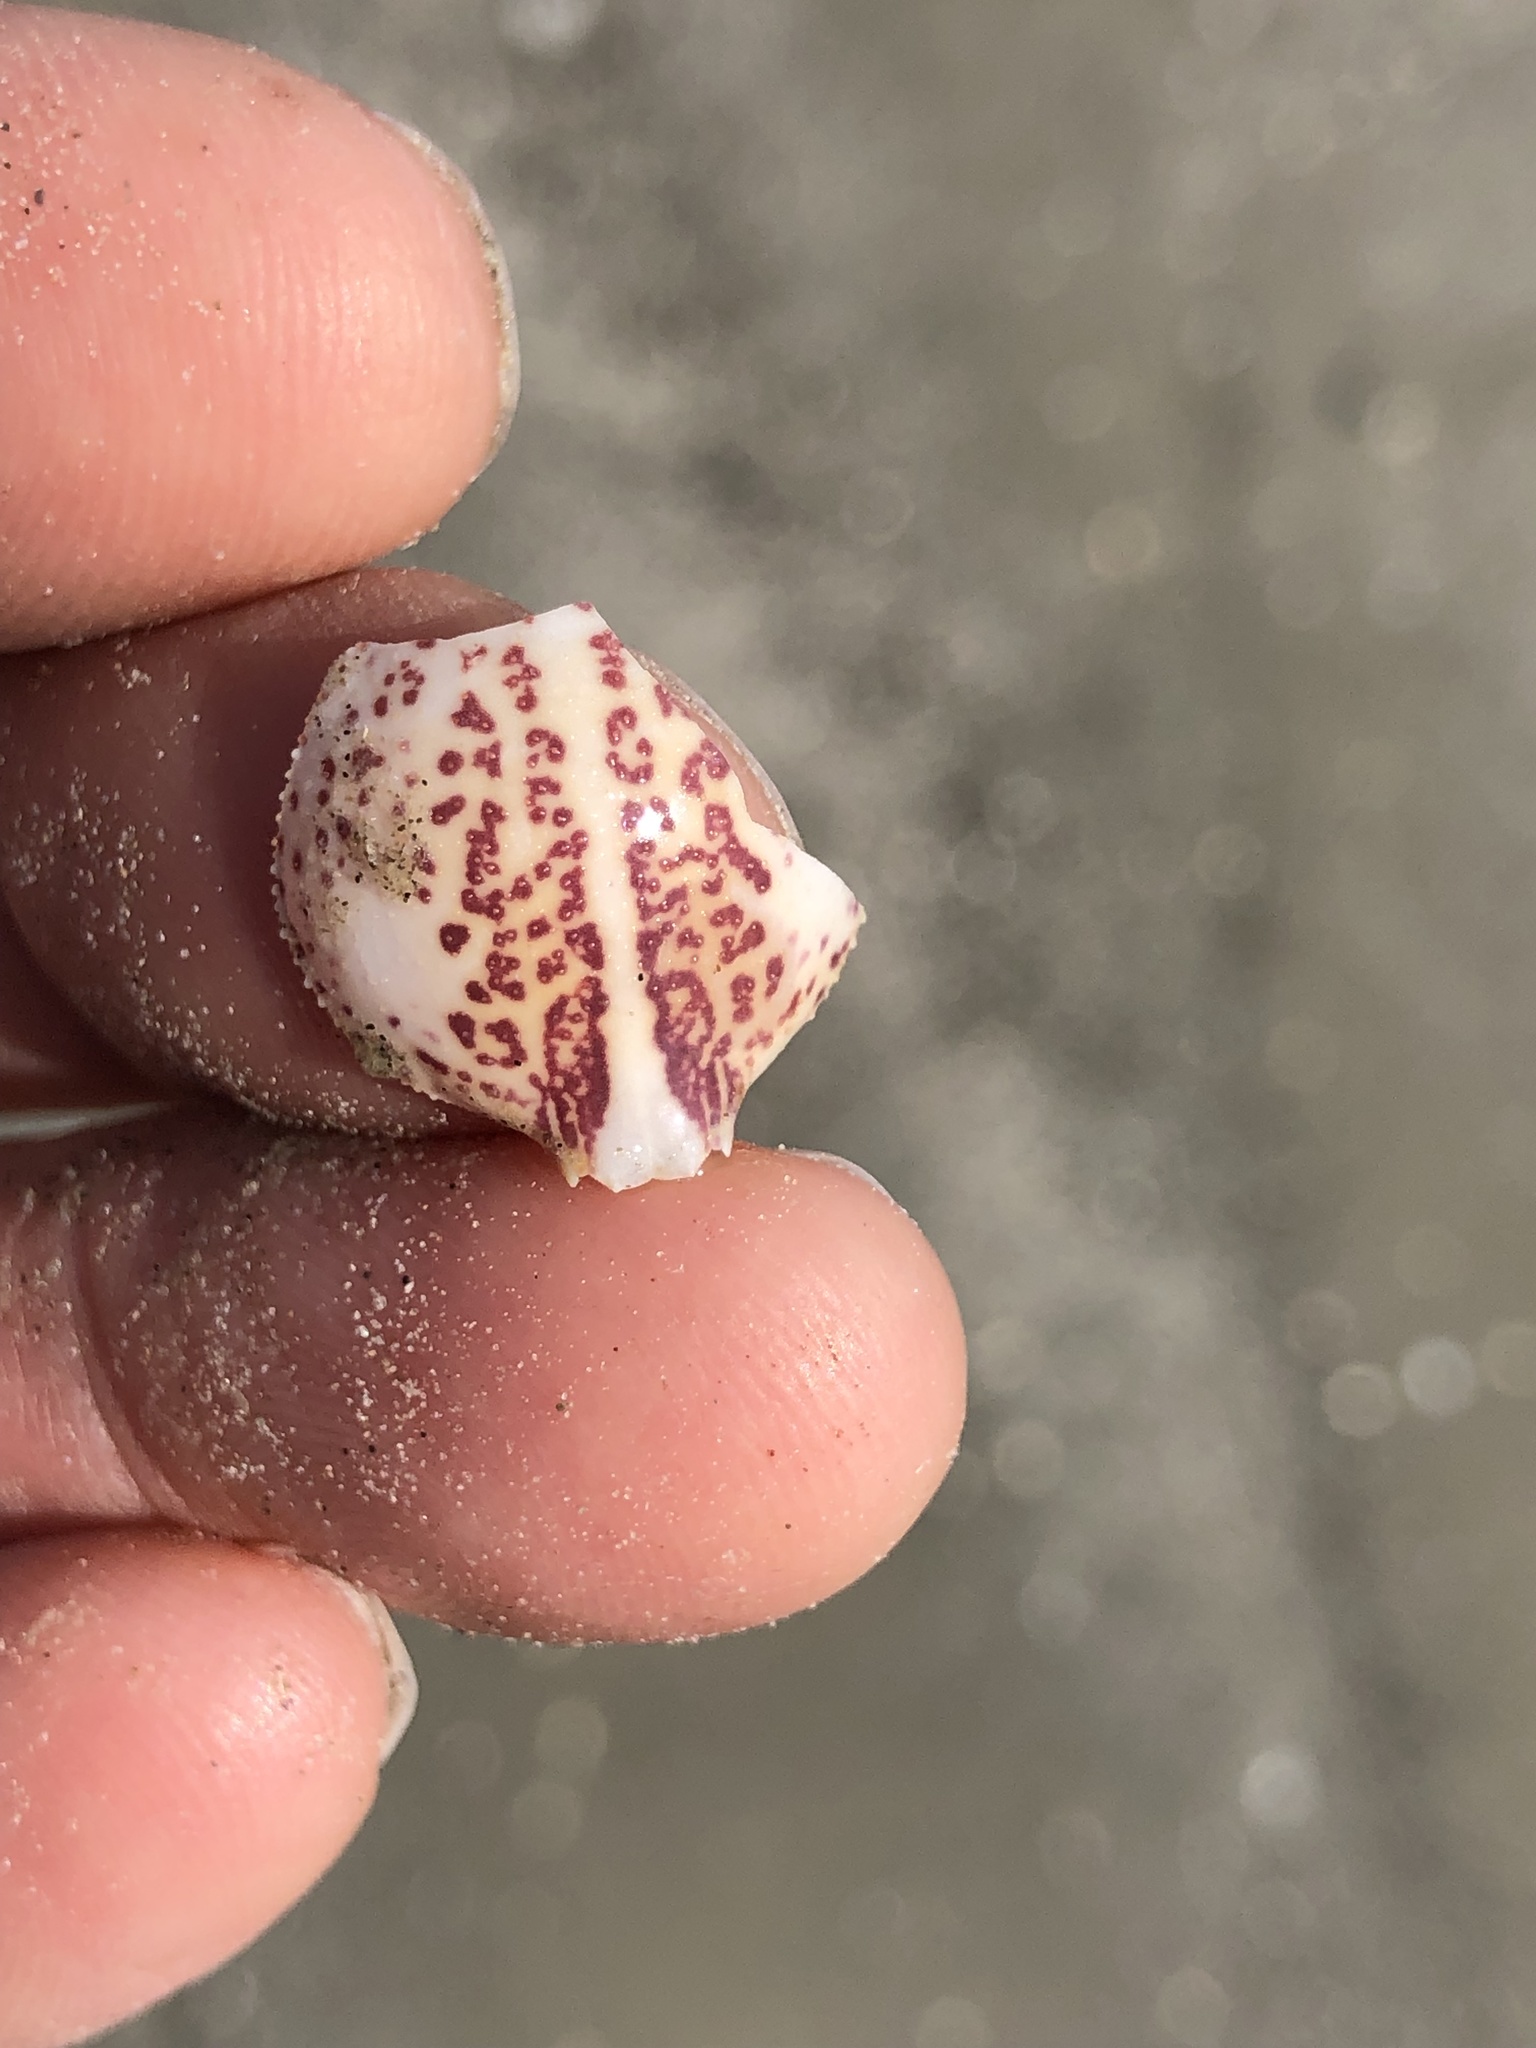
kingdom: Animalia
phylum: Arthropoda
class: Malacostraca
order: Decapoda
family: Leucosiidae
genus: Persephona
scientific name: Persephona aquilonaris
